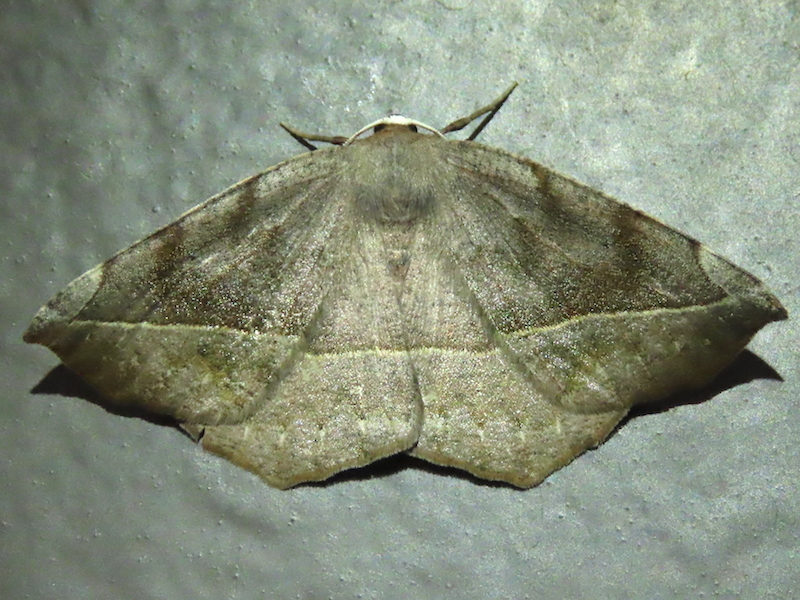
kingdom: Animalia
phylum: Arthropoda
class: Insecta
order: Lepidoptera
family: Geometridae
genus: Eutrapela
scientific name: Eutrapela clemataria
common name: Curved-toothed geometer
